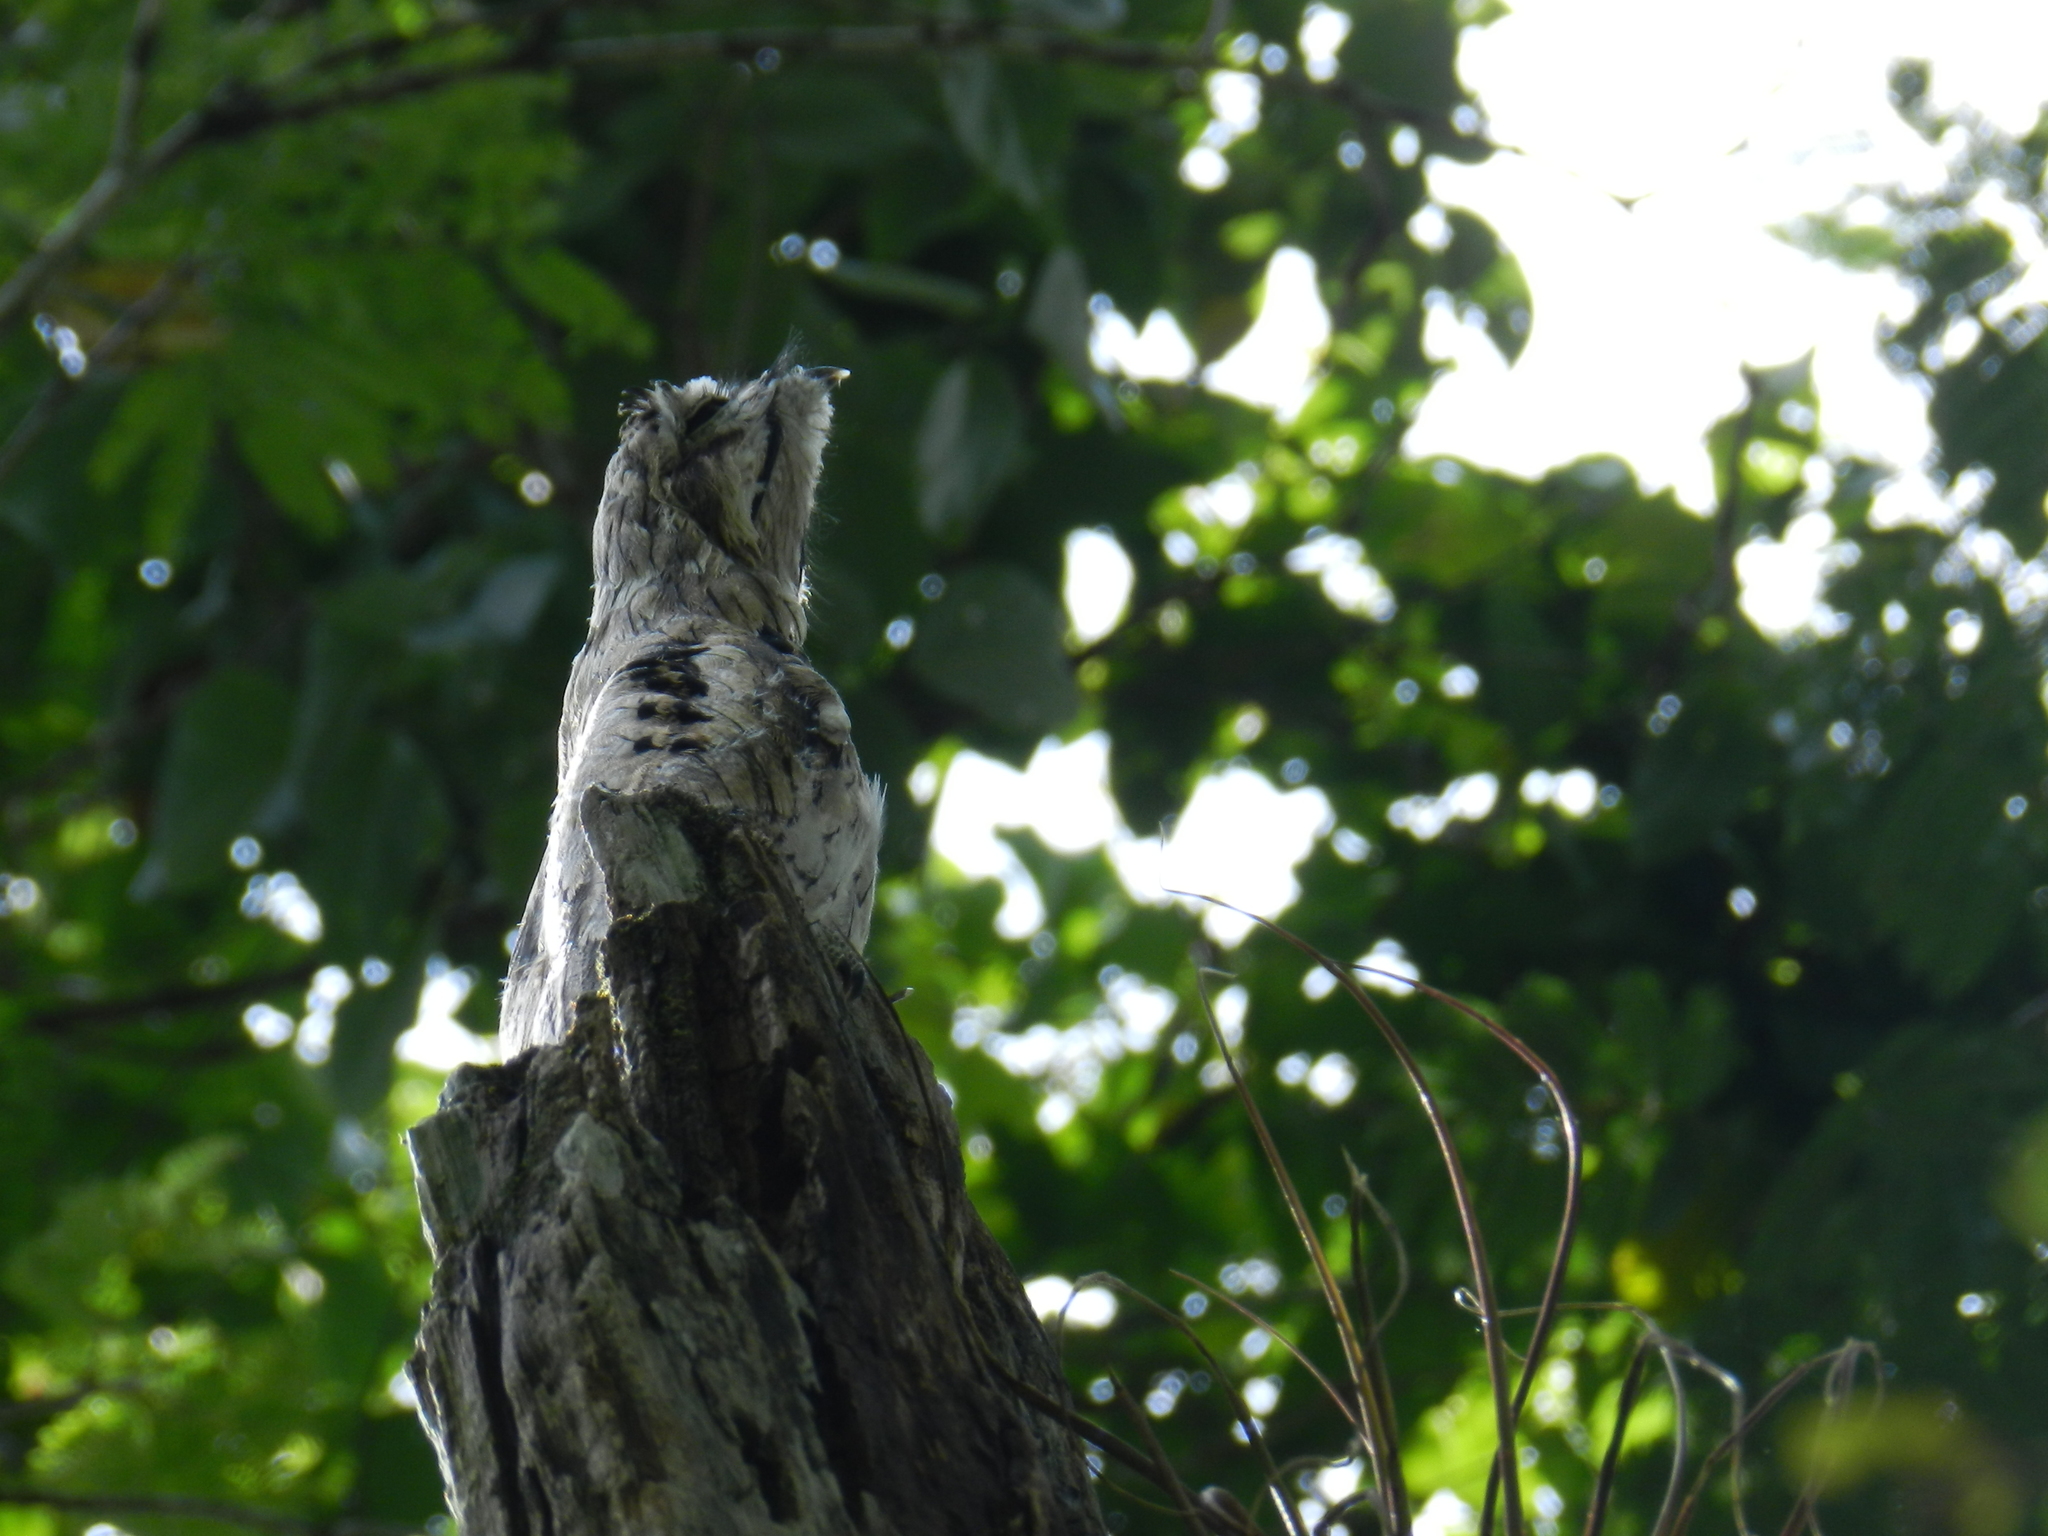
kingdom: Animalia
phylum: Chordata
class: Aves
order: Nyctibiiformes
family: Nyctibiidae
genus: Nyctibius
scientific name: Nyctibius griseus
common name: Common potoo
